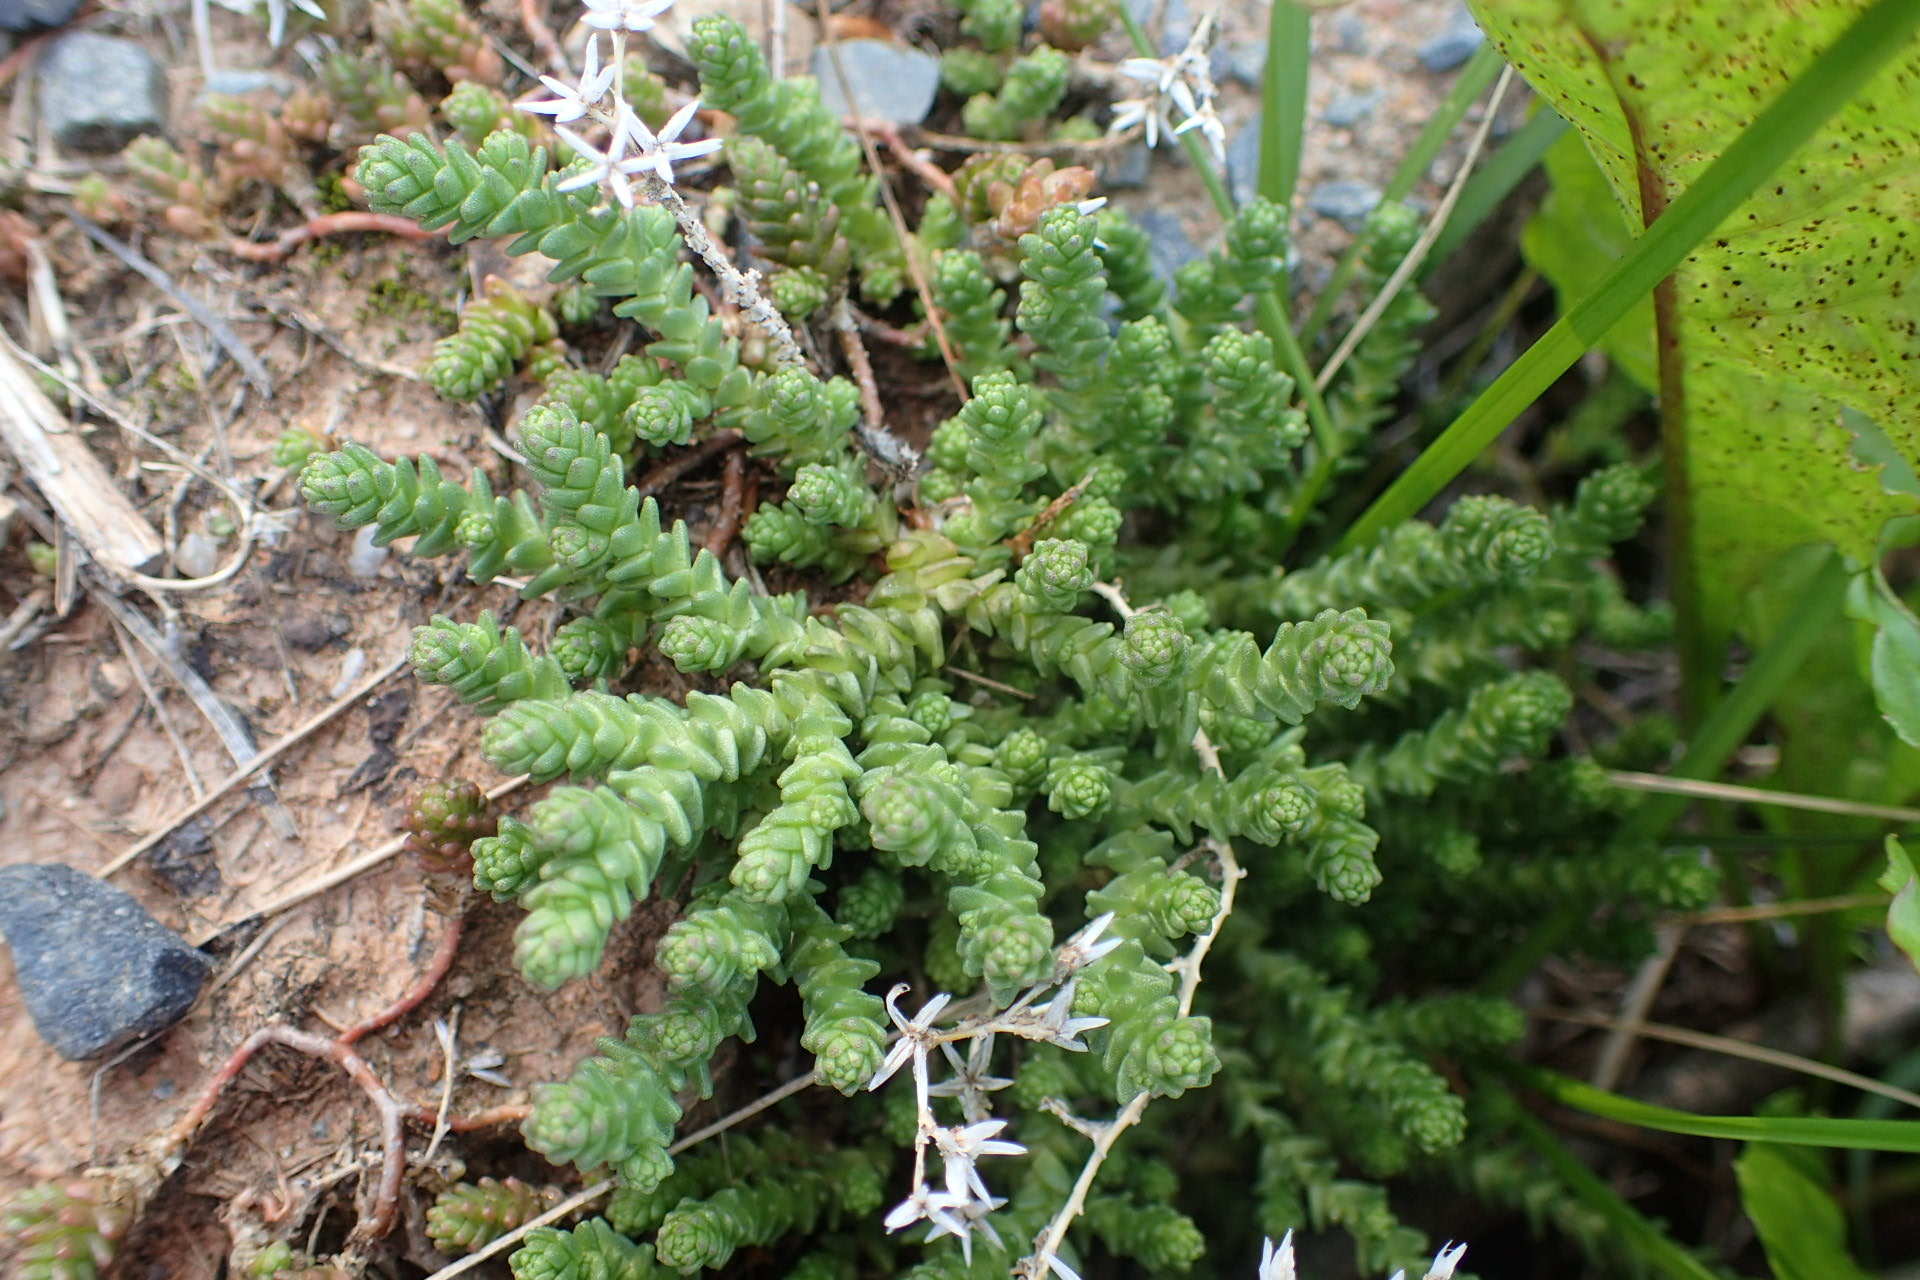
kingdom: Plantae
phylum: Tracheophyta
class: Magnoliopsida
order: Saxifragales
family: Crassulaceae
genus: Sedum
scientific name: Sedum acre
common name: Biting stonecrop
